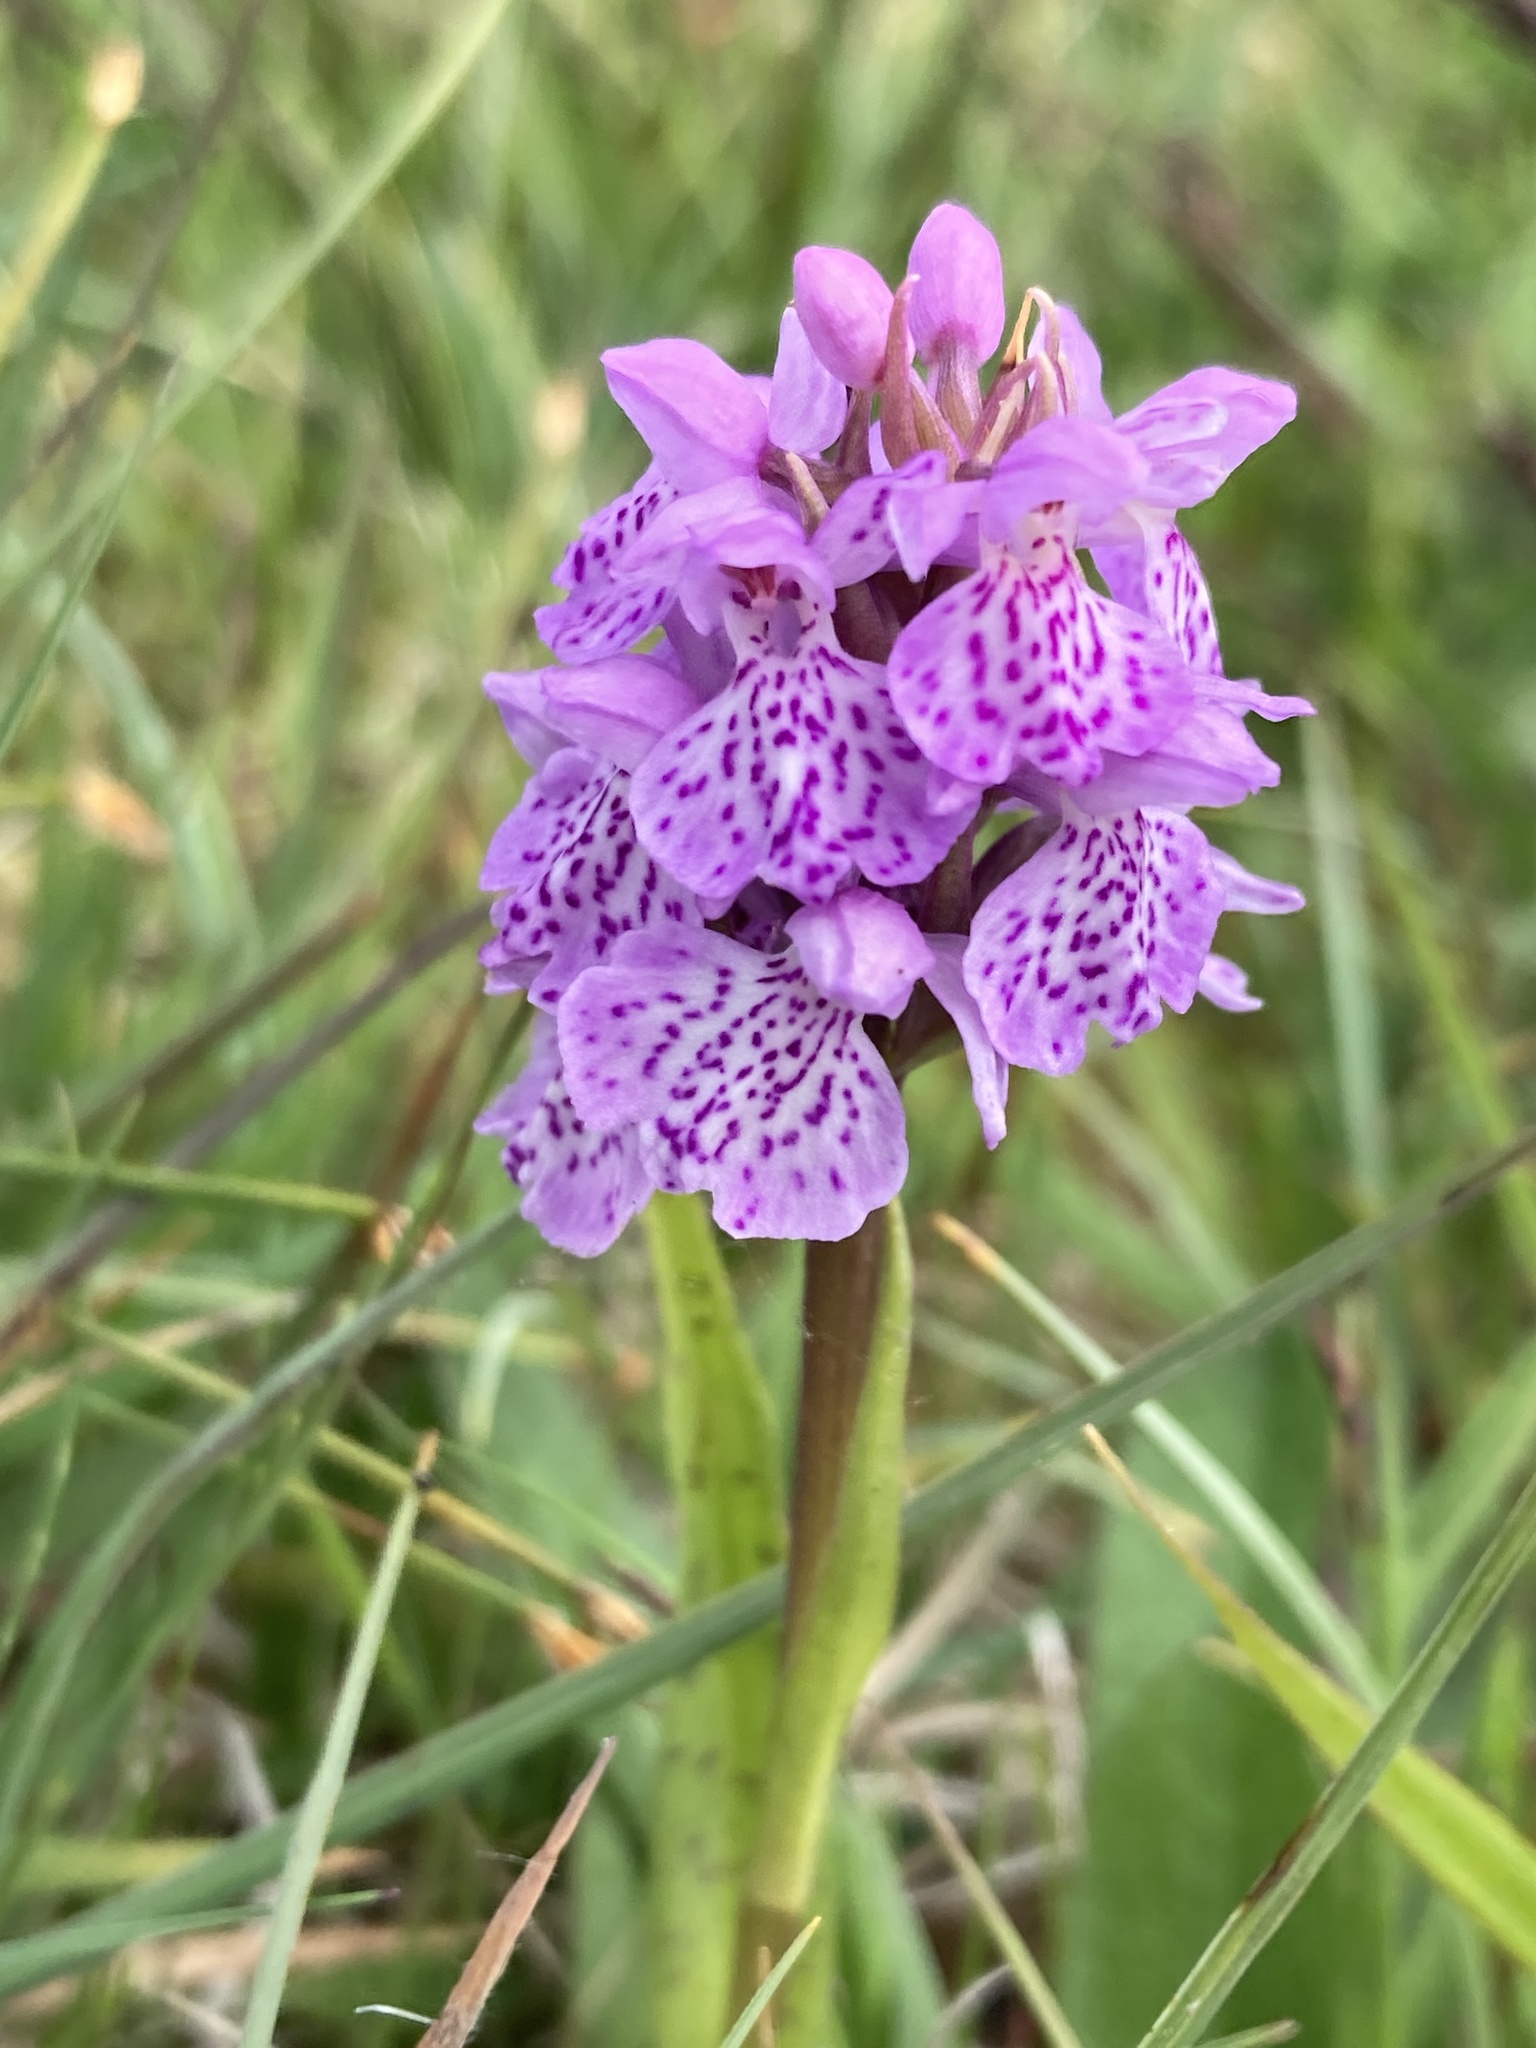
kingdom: Plantae
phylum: Tracheophyta
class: Liliopsida
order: Asparagales
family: Orchidaceae
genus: Dactylorhiza
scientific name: Dactylorhiza maculata
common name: Heath spotted-orchid
